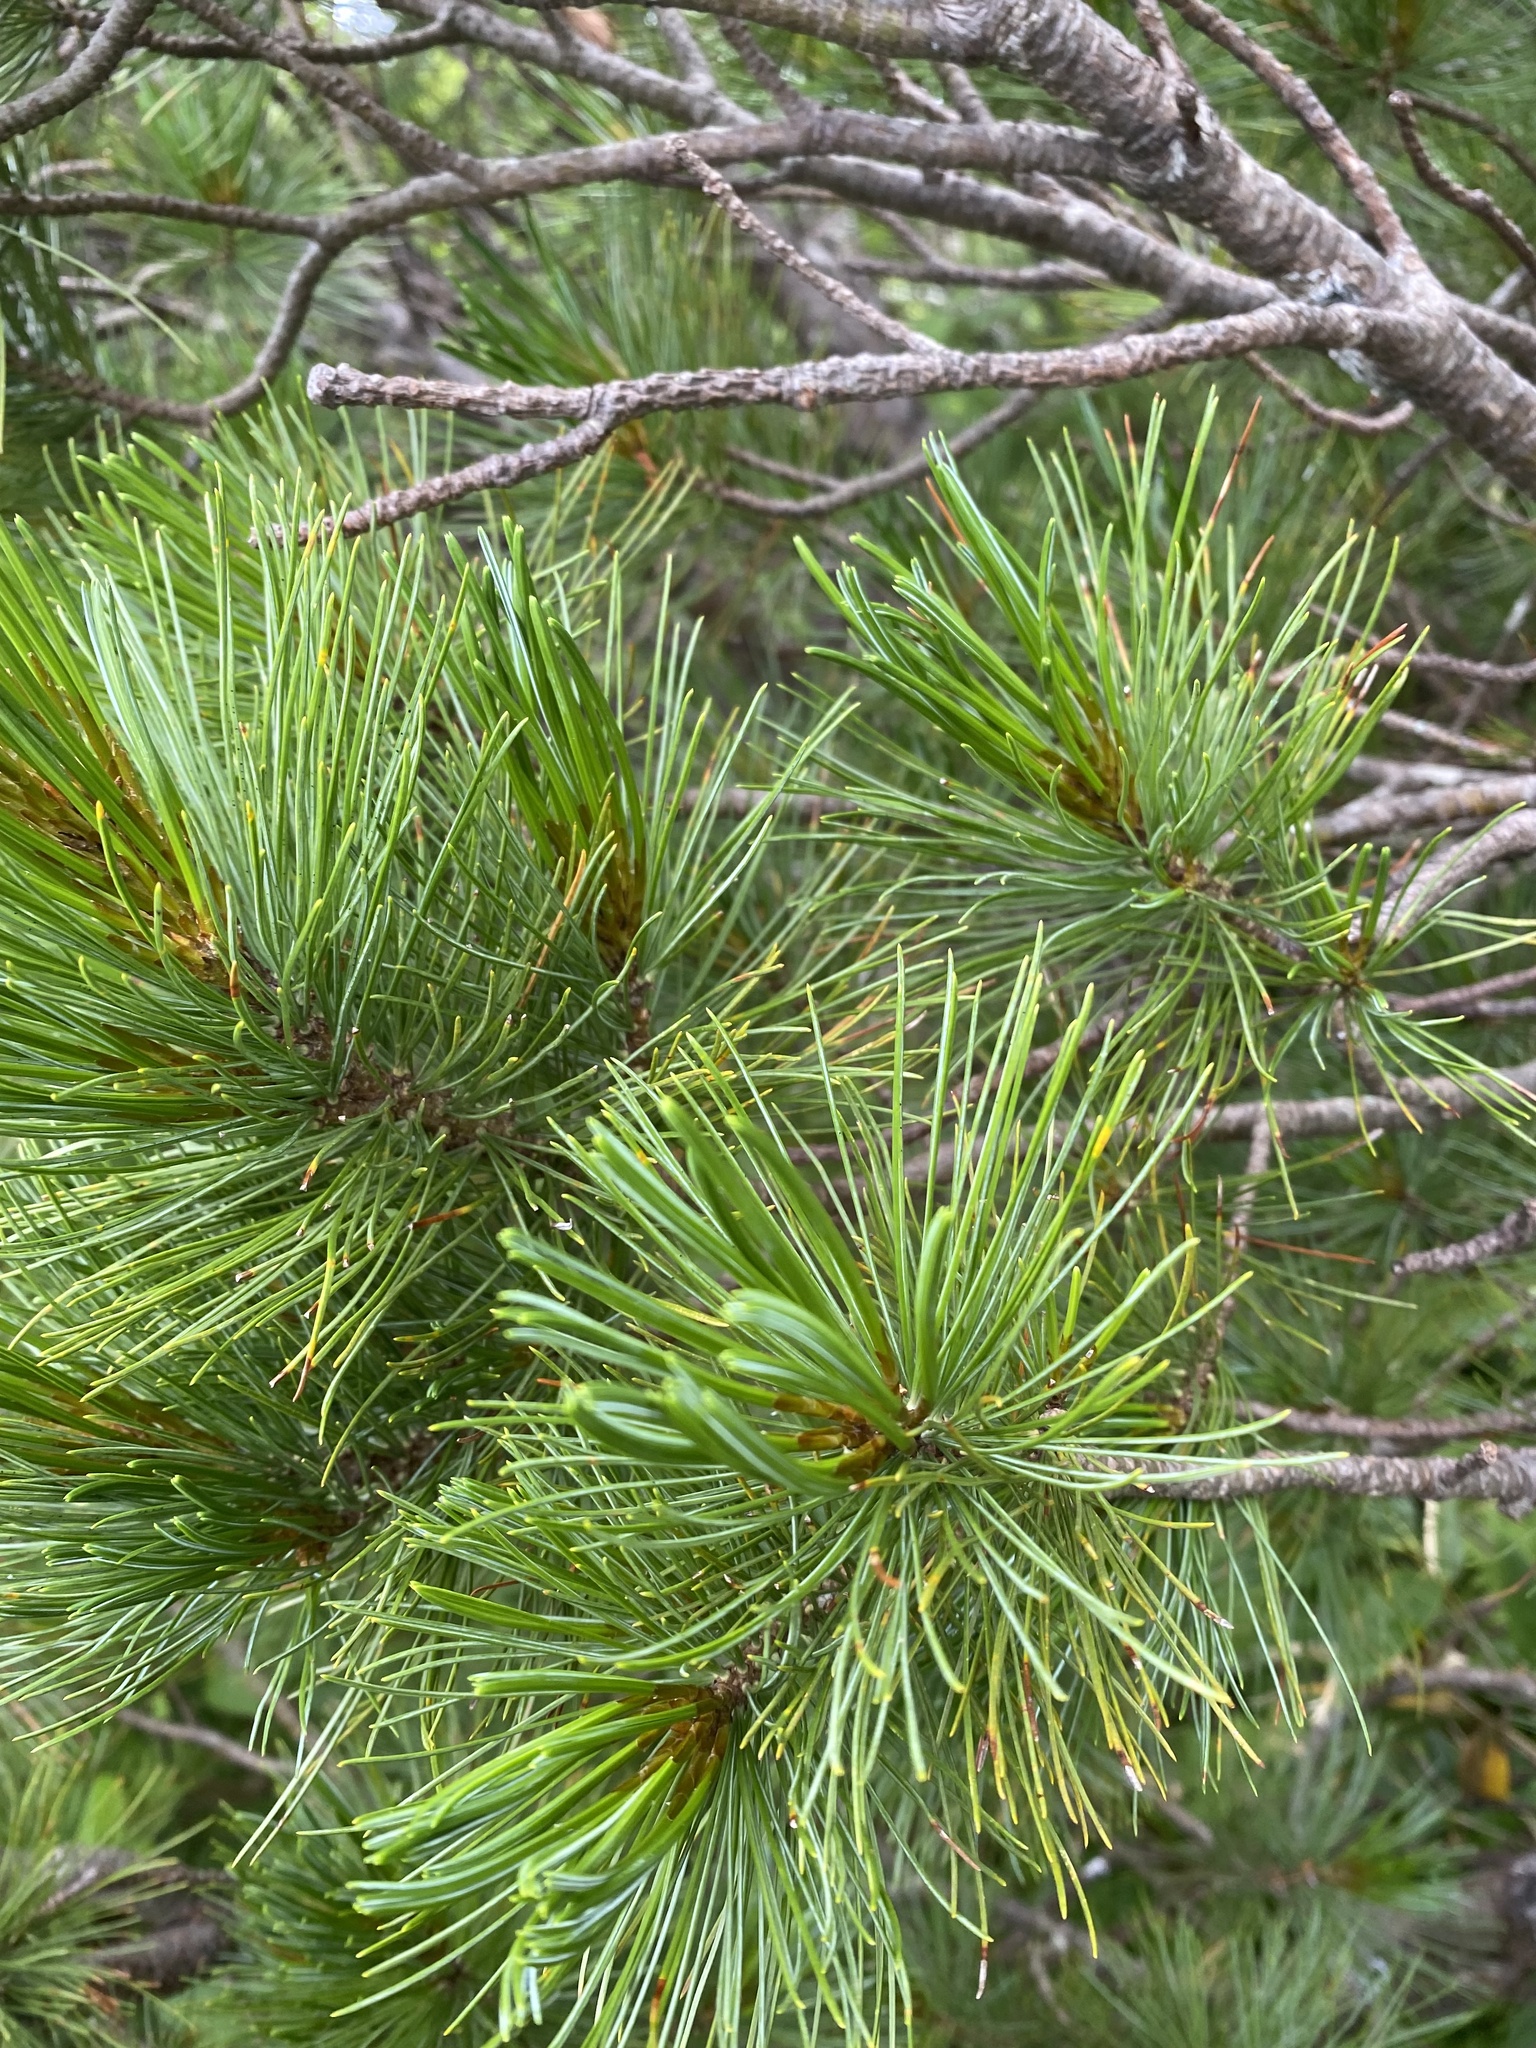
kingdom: Plantae
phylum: Tracheophyta
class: Pinopsida
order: Pinales
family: Pinaceae
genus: Pinus
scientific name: Pinus pumila
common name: Dwarf siberian pine
